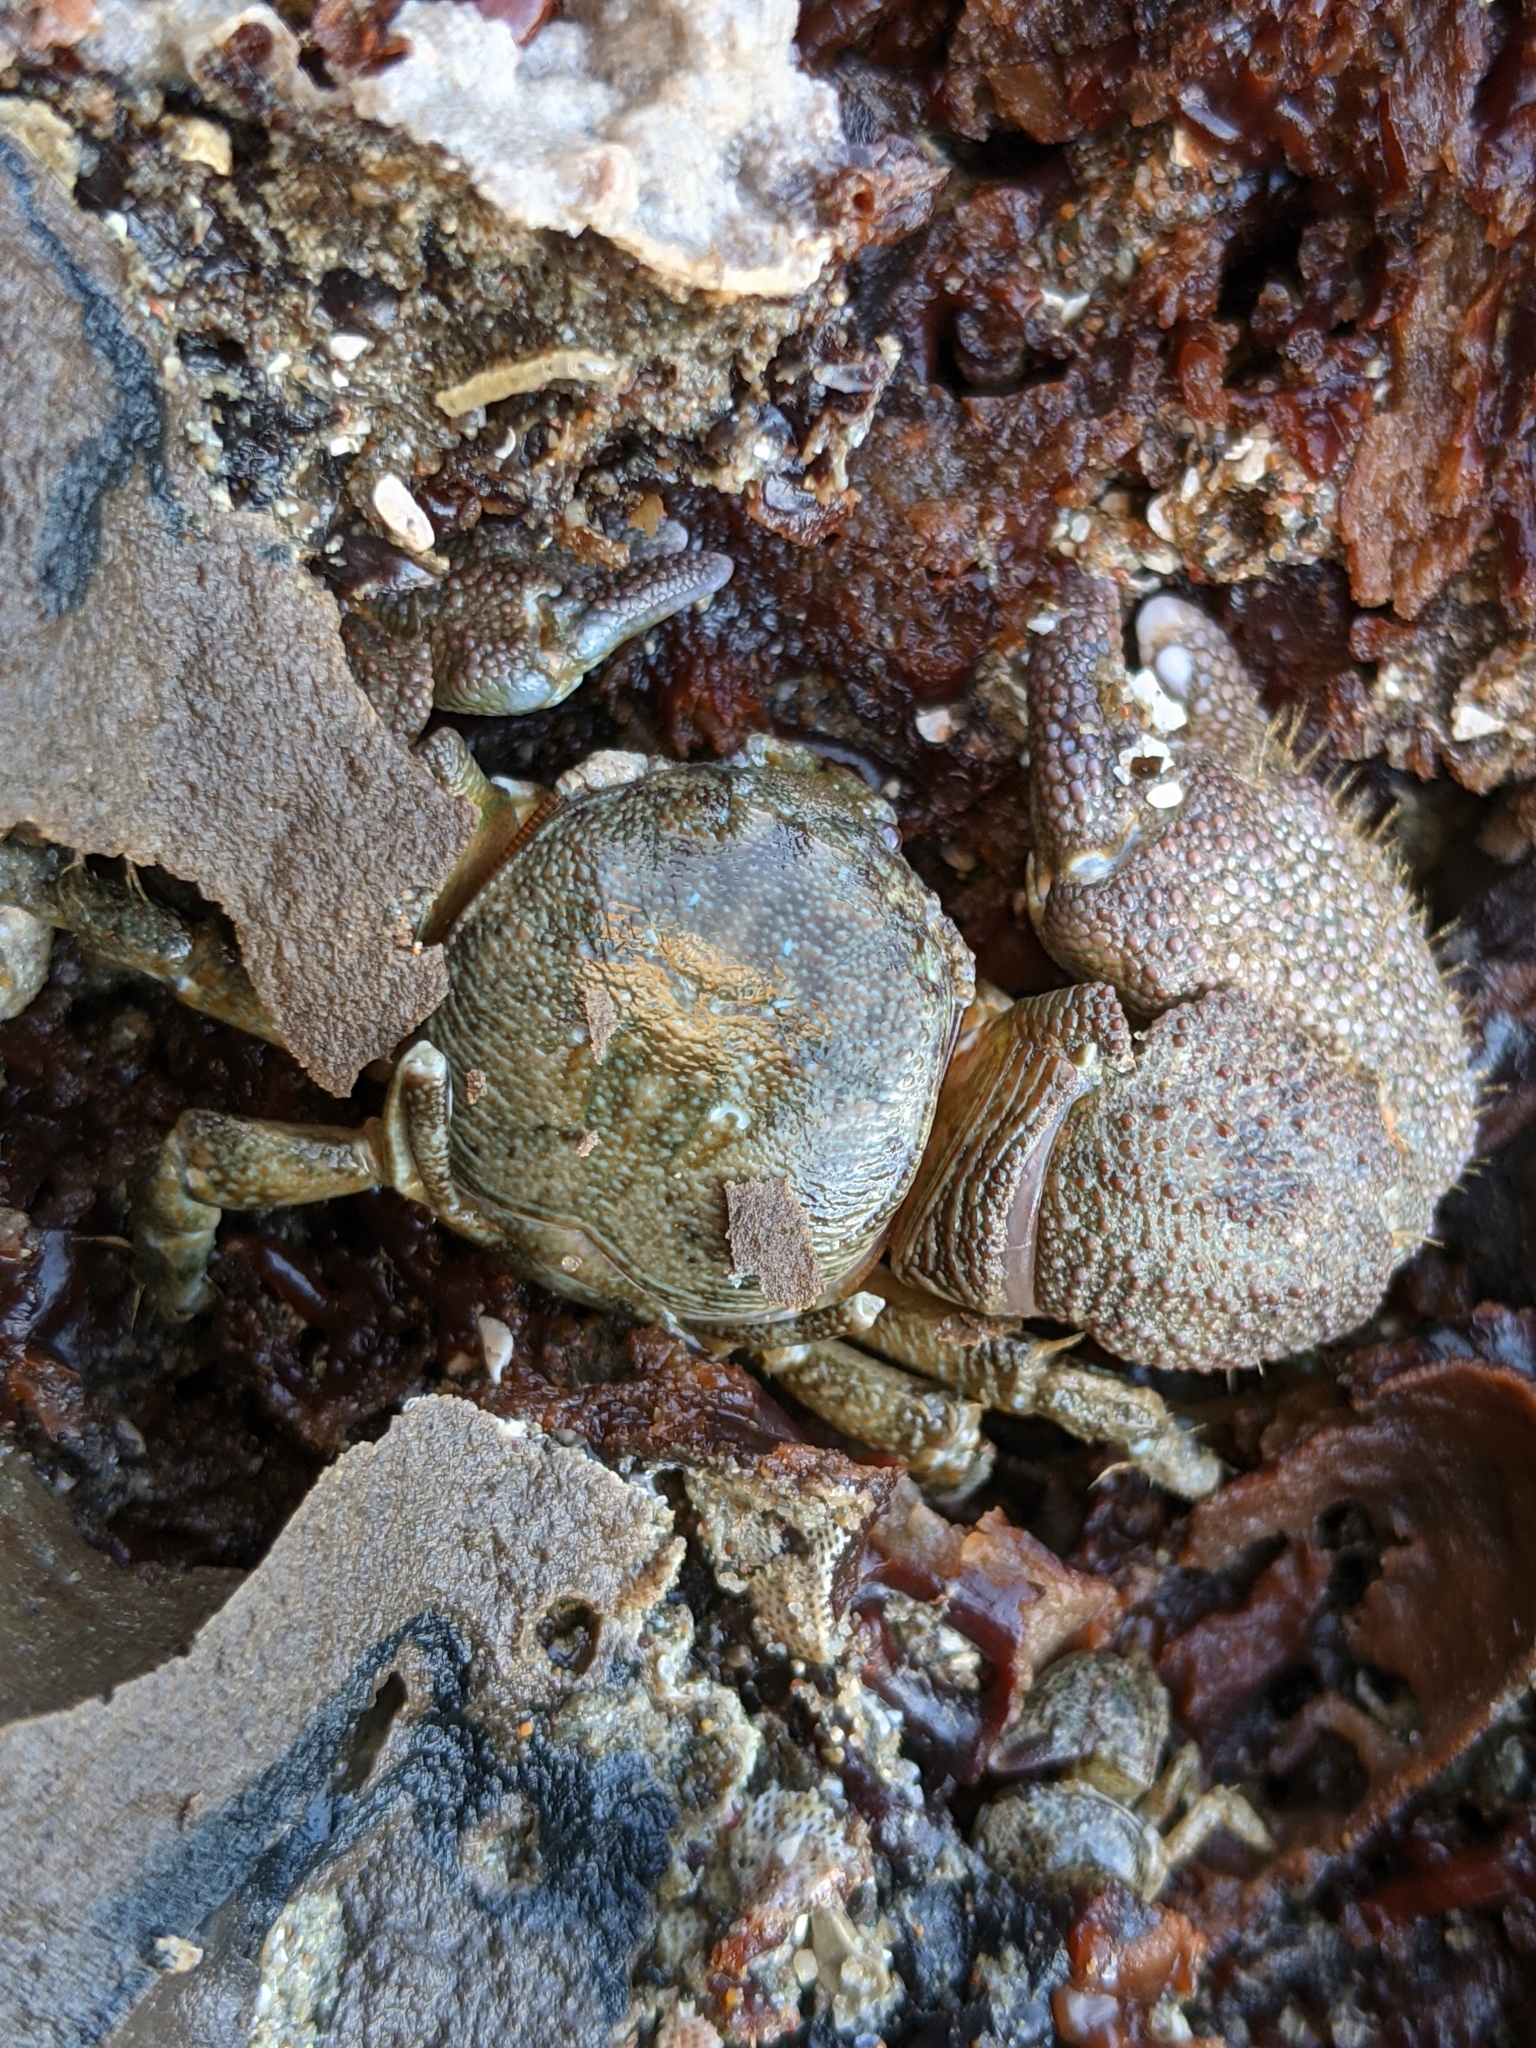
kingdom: Animalia
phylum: Arthropoda
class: Malacostraca
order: Decapoda
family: Porcellanidae
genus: Pachycheles
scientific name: Pachycheles rudis
